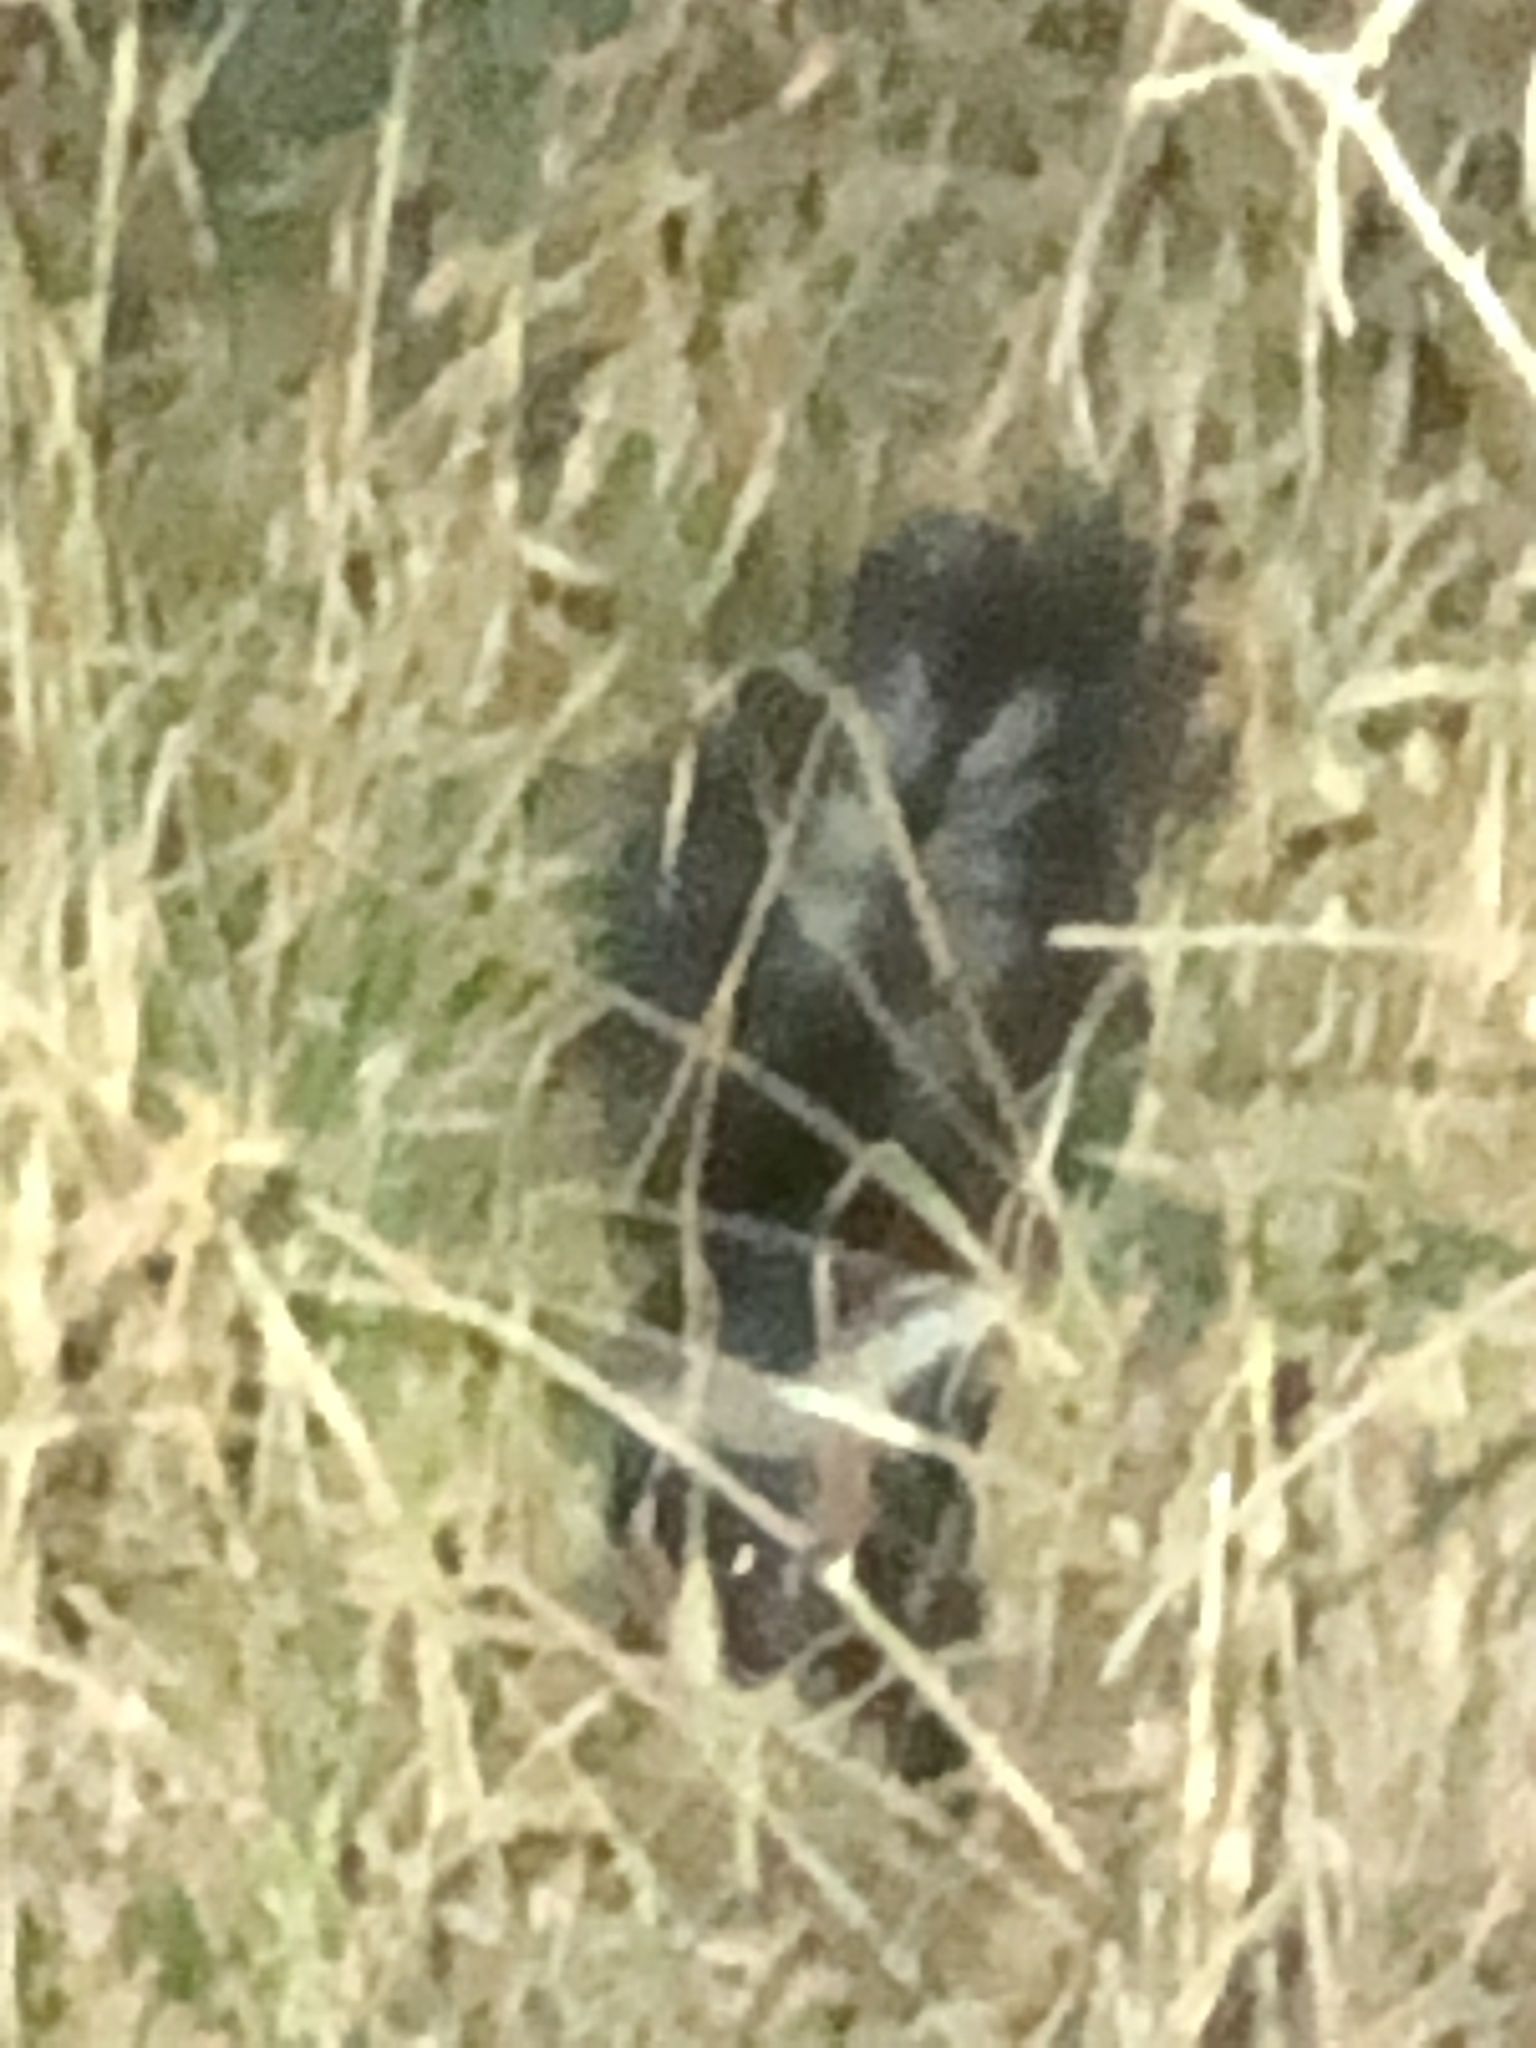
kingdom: Animalia
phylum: Chordata
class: Mammalia
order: Carnivora
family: Mephitidae
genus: Mephitis
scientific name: Mephitis mephitis
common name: Striped skunk
